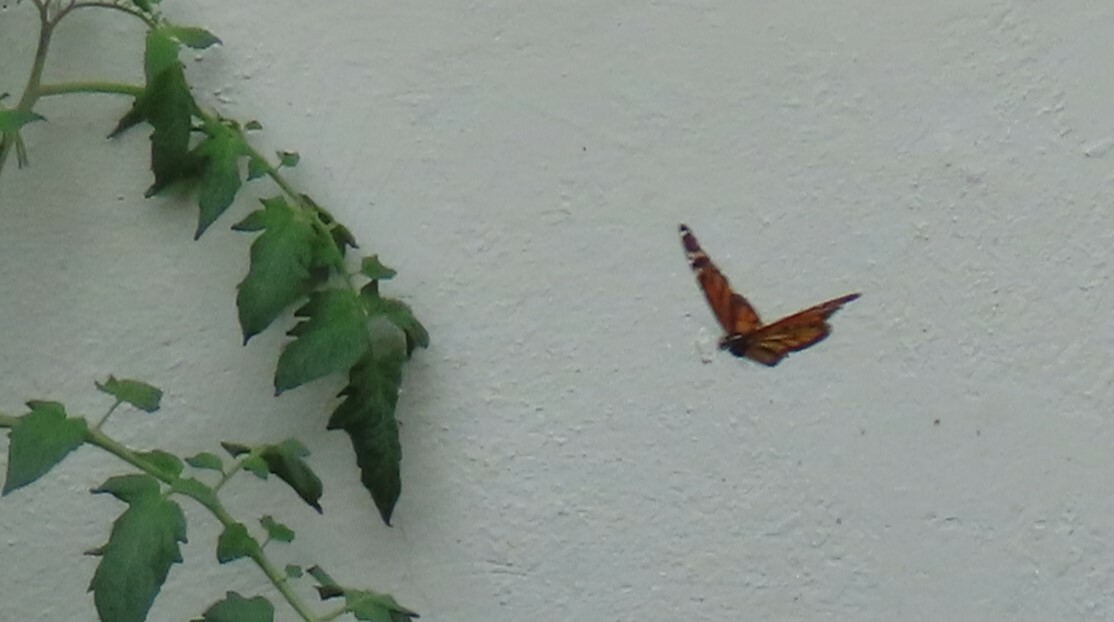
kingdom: Animalia
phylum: Arthropoda
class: Insecta
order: Lepidoptera
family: Nymphalidae
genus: Danaus
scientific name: Danaus plexippus
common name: Monarch
